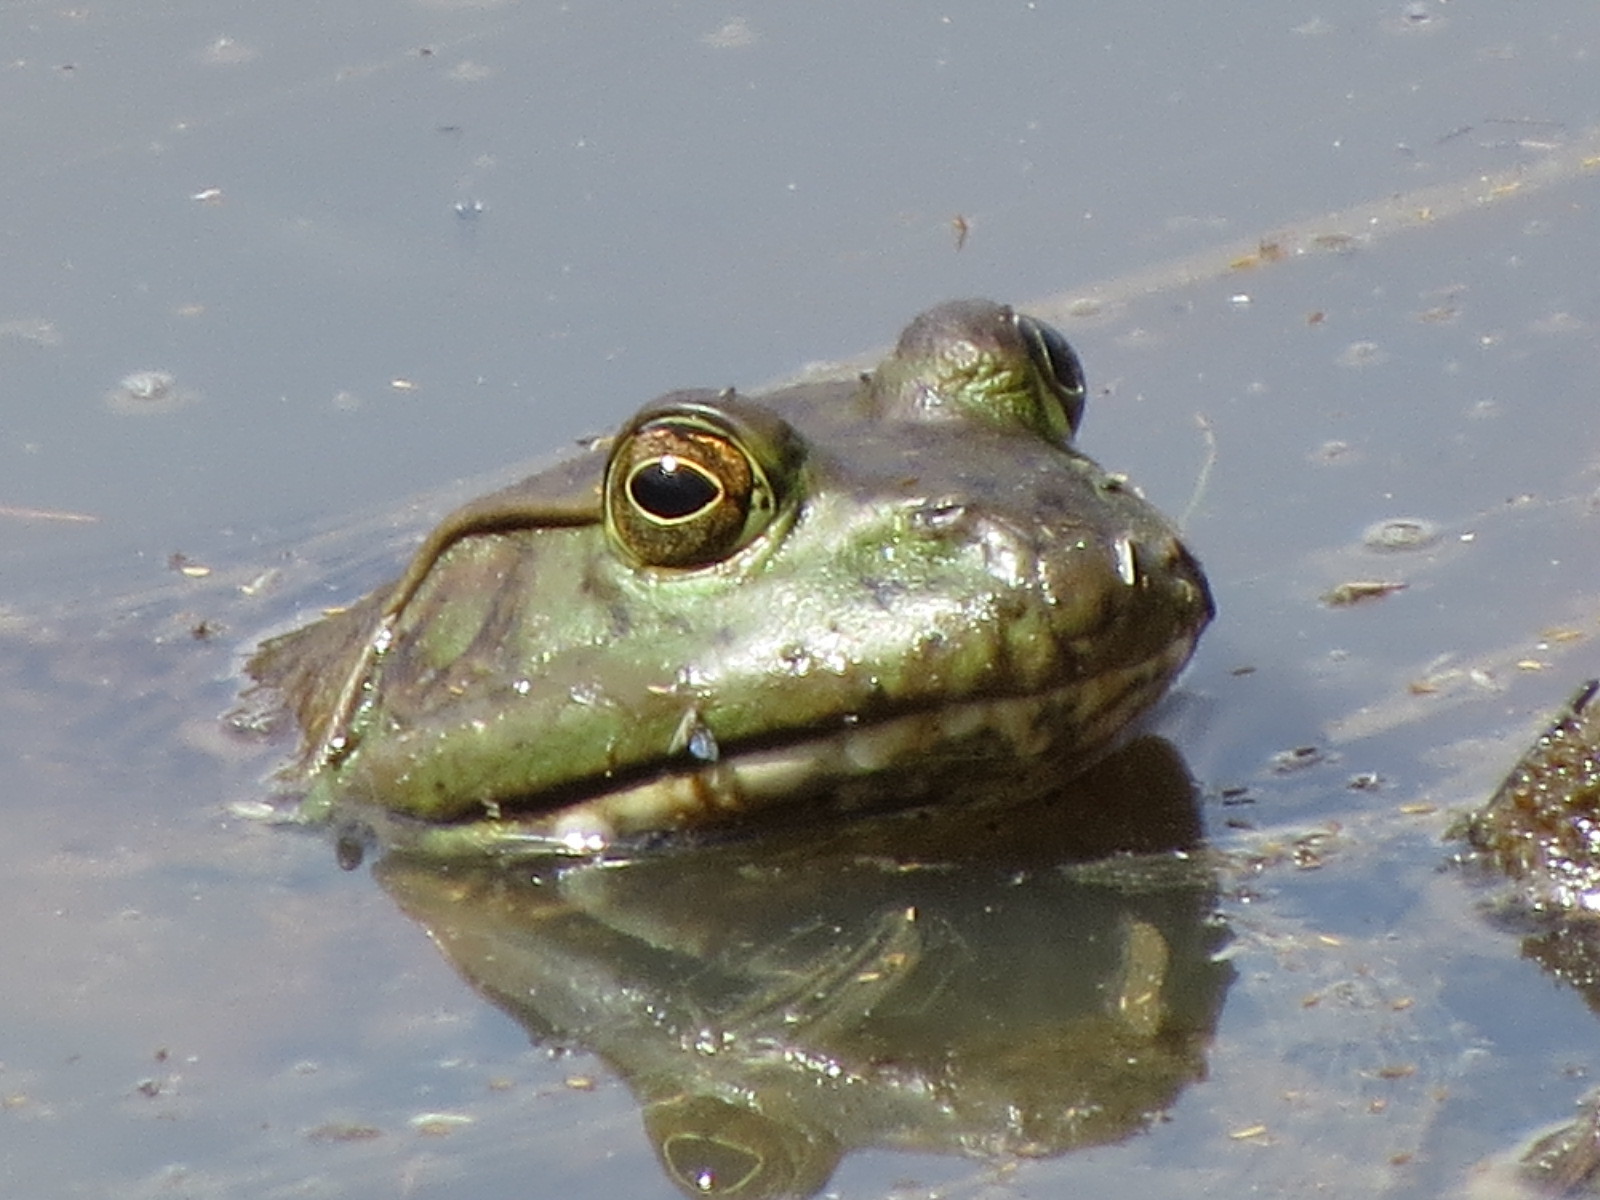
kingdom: Animalia
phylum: Chordata
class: Amphibia
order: Anura
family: Ranidae
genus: Lithobates
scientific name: Lithobates catesbeianus
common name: American bullfrog
